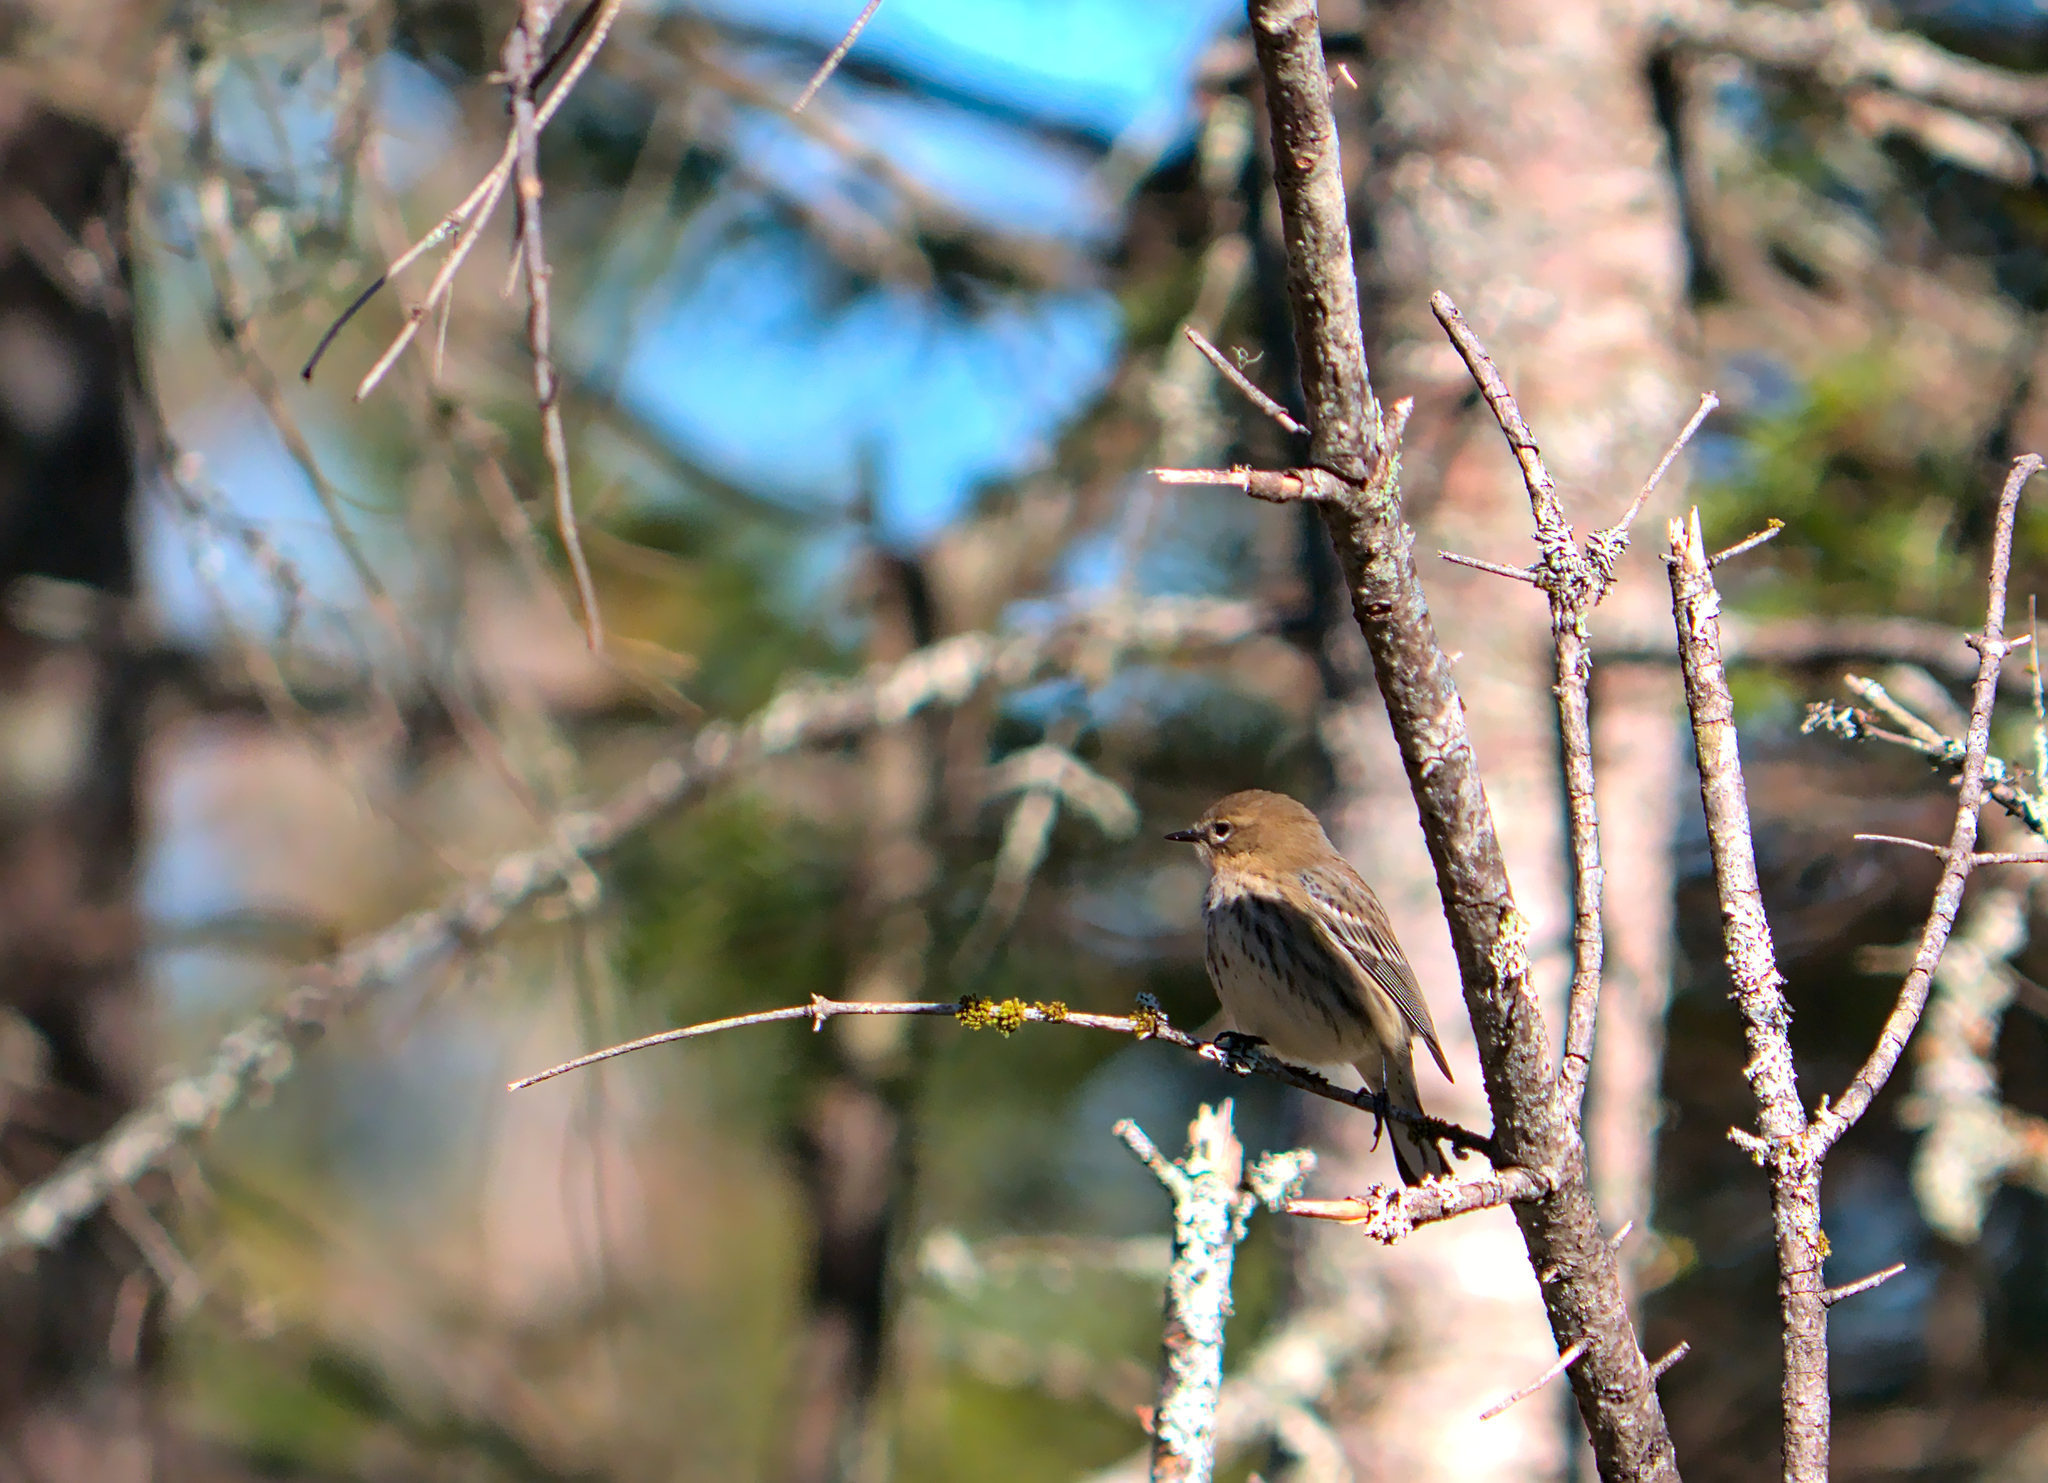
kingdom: Animalia
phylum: Chordata
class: Aves
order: Passeriformes
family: Parulidae
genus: Setophaga
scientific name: Setophaga coronata
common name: Myrtle warbler
